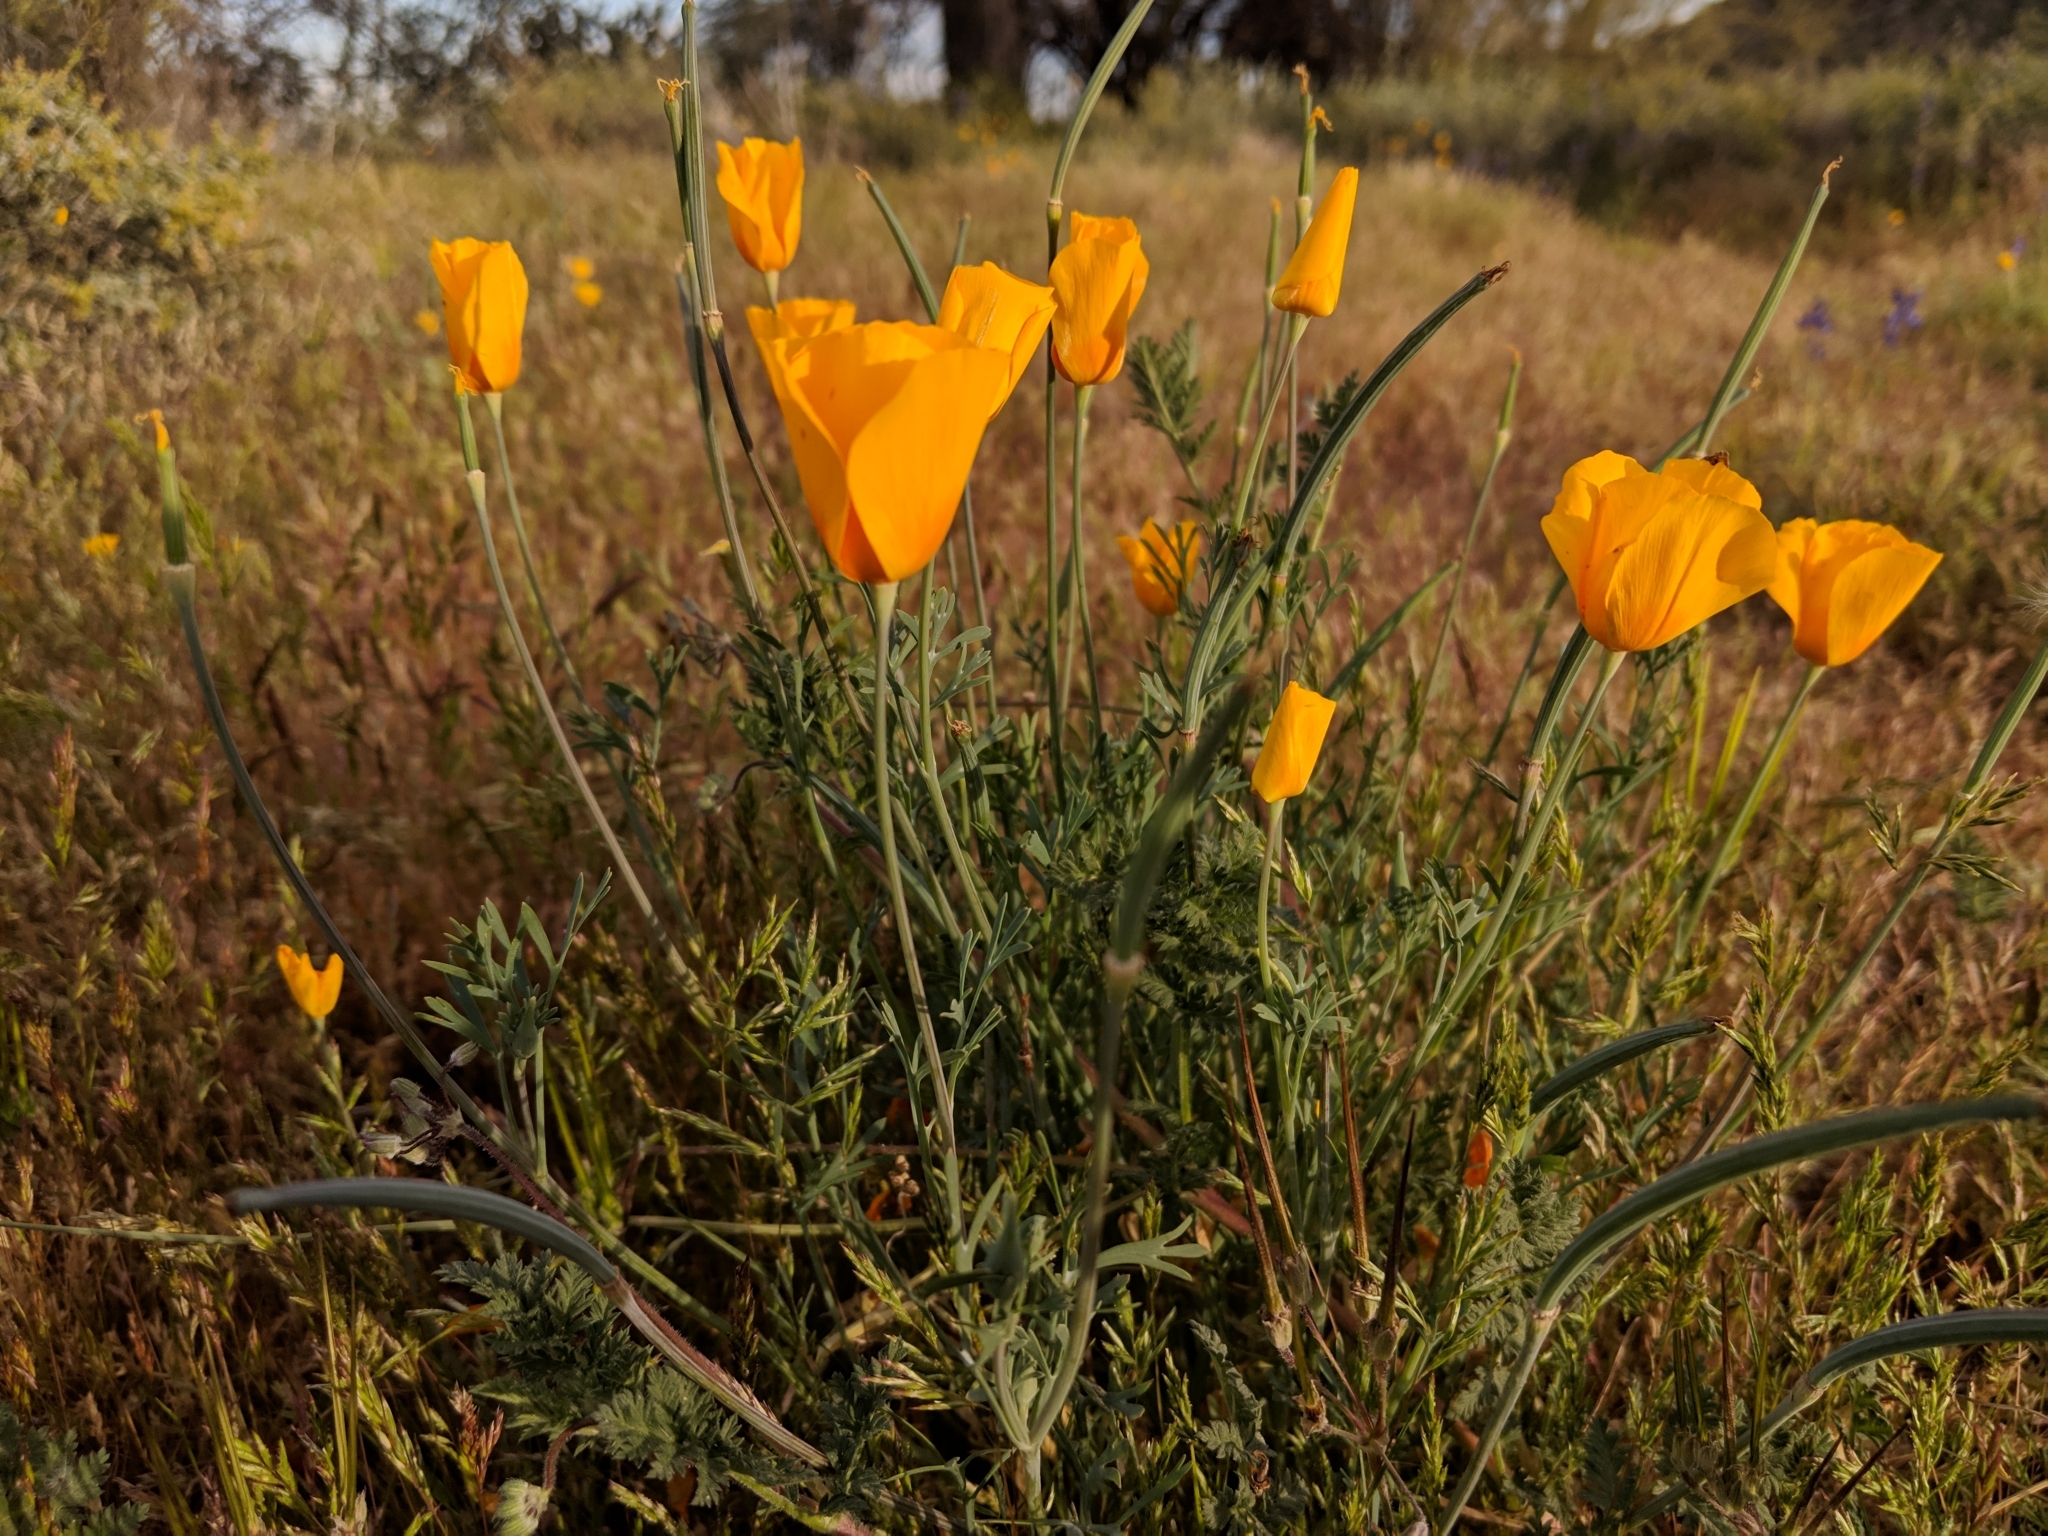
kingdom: Plantae
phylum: Tracheophyta
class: Magnoliopsida
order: Ranunculales
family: Papaveraceae
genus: Eschscholzia
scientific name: Eschscholzia californica
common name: California poppy
